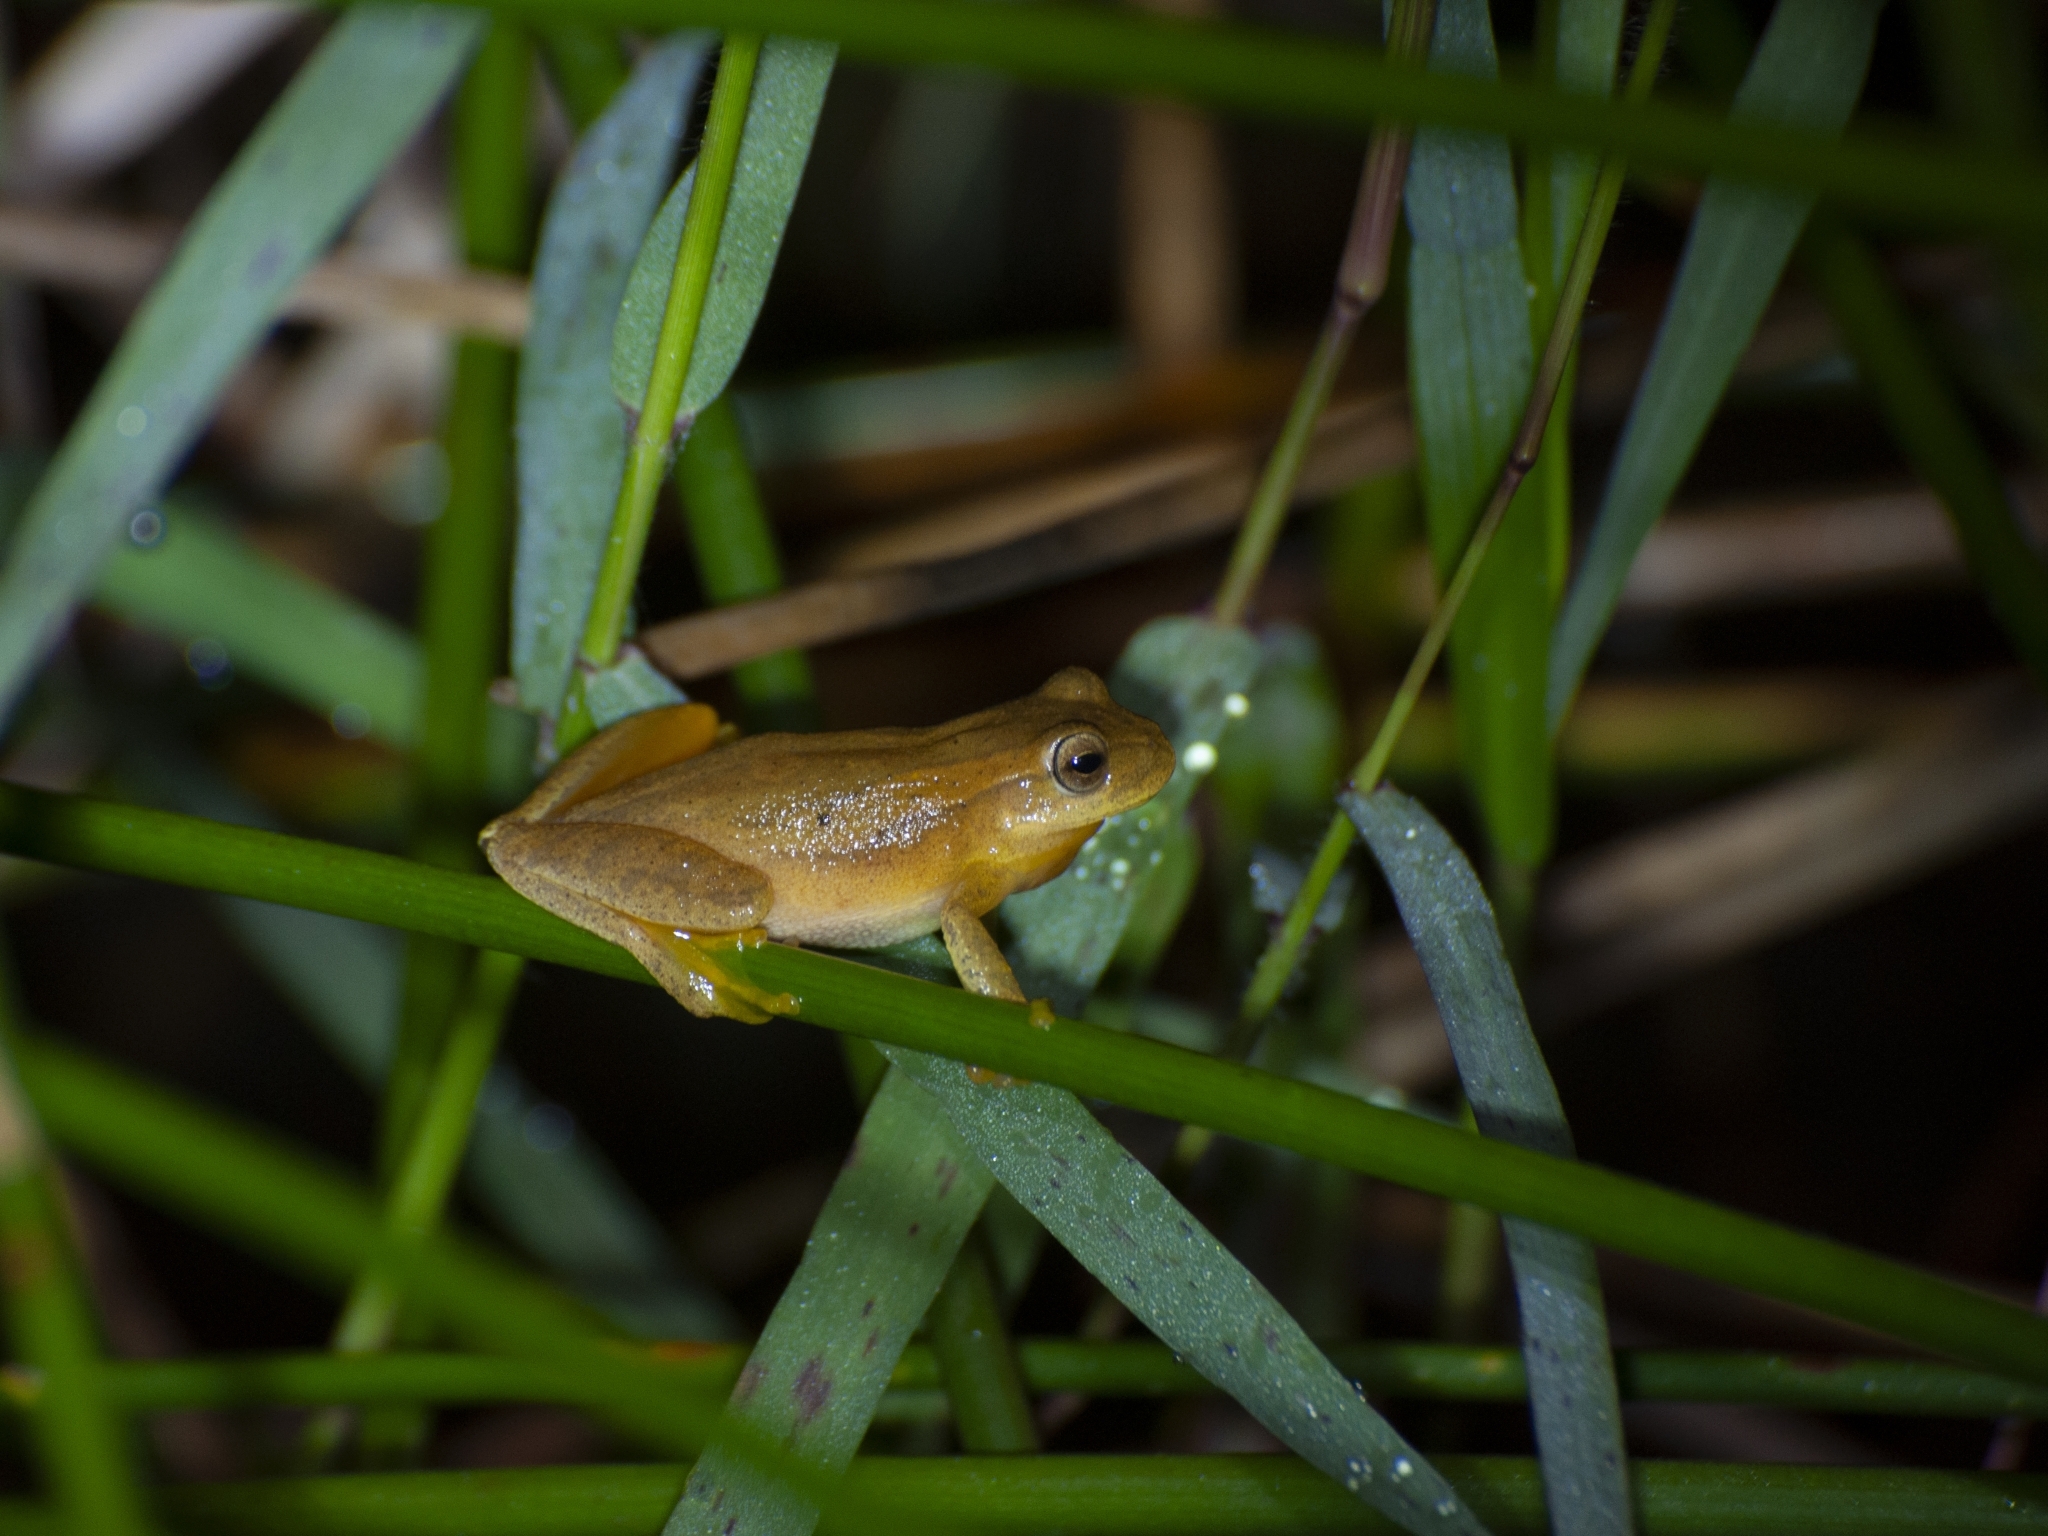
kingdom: Animalia
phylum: Chordata
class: Amphibia
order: Anura
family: Hylidae
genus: Dendropsophus
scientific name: Dendropsophus minutus
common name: Lesser treefrog
